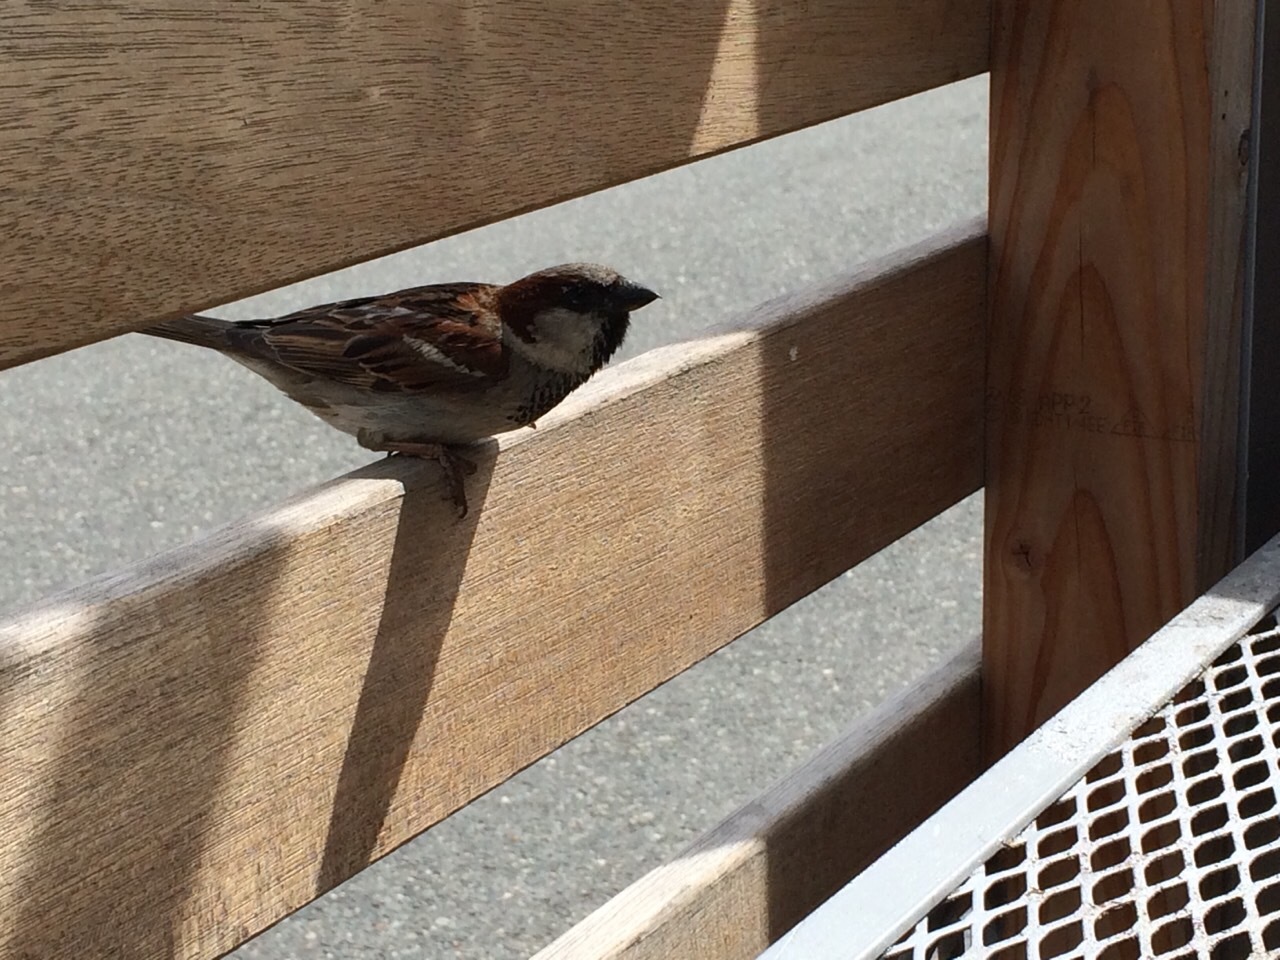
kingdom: Animalia
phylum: Chordata
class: Aves
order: Passeriformes
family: Passeridae
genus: Passer
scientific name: Passer domesticus
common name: House sparrow
